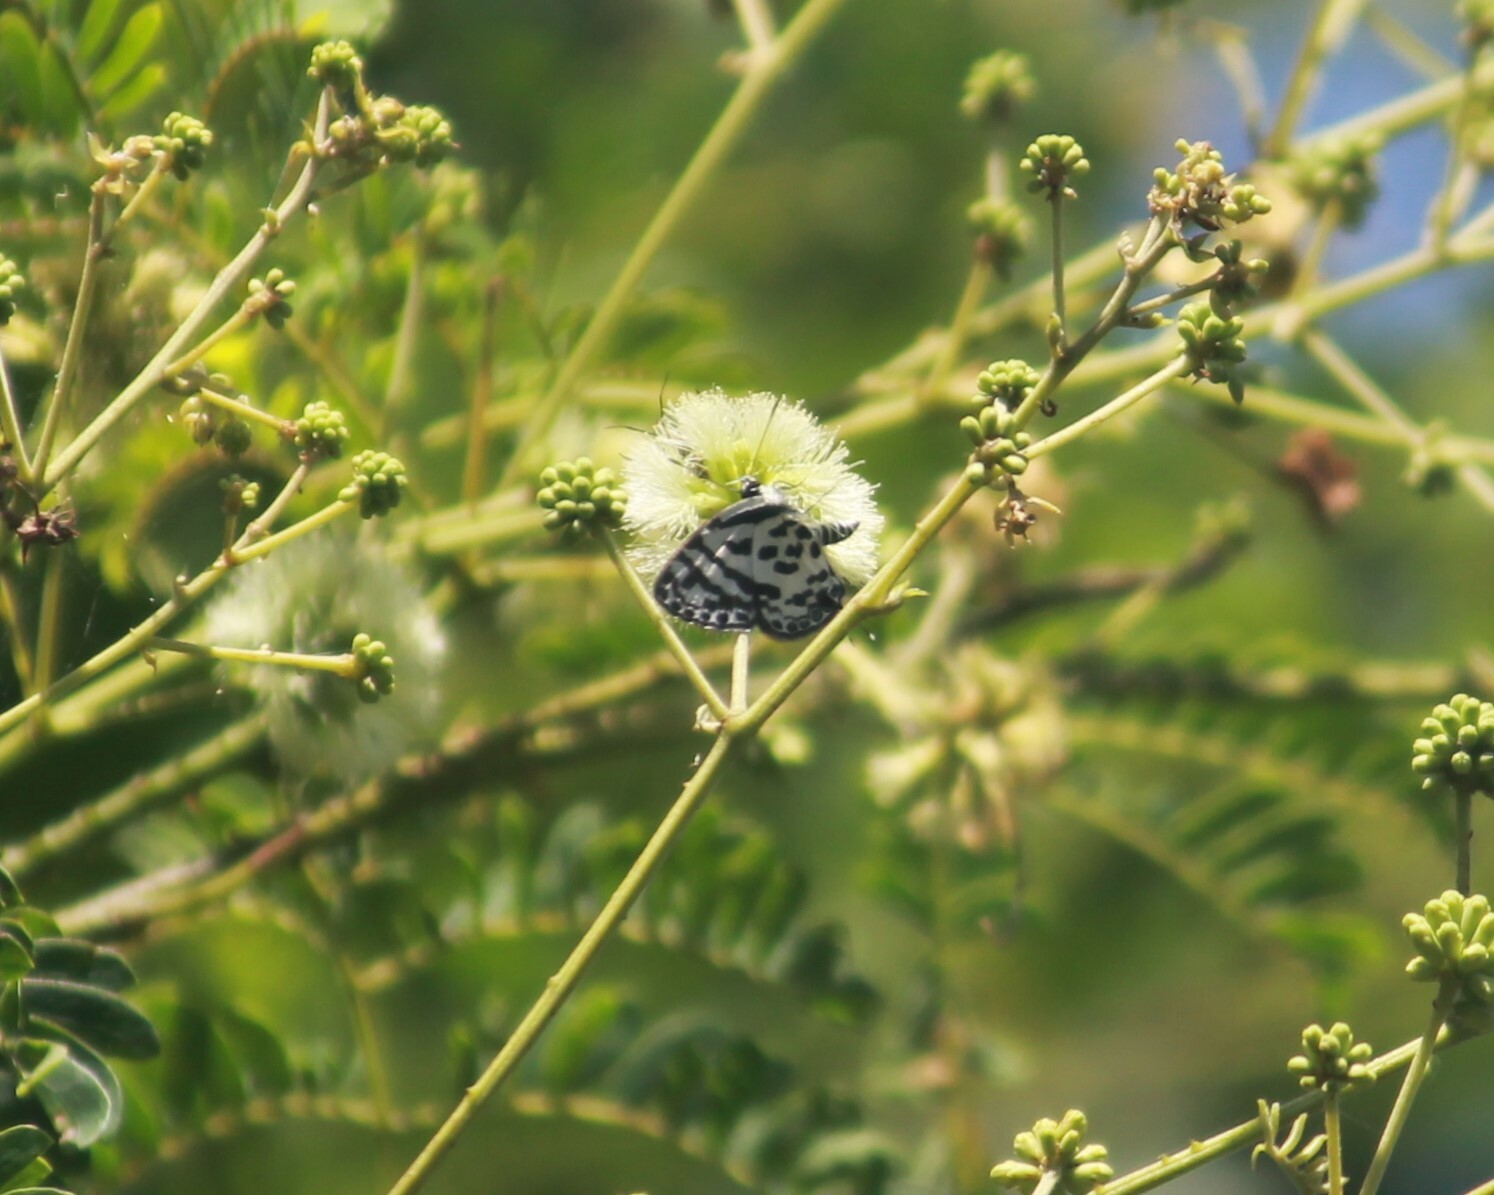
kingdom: Animalia
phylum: Arthropoda
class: Insecta
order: Lepidoptera
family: Lycaenidae
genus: Castalius
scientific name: Castalius melaena
